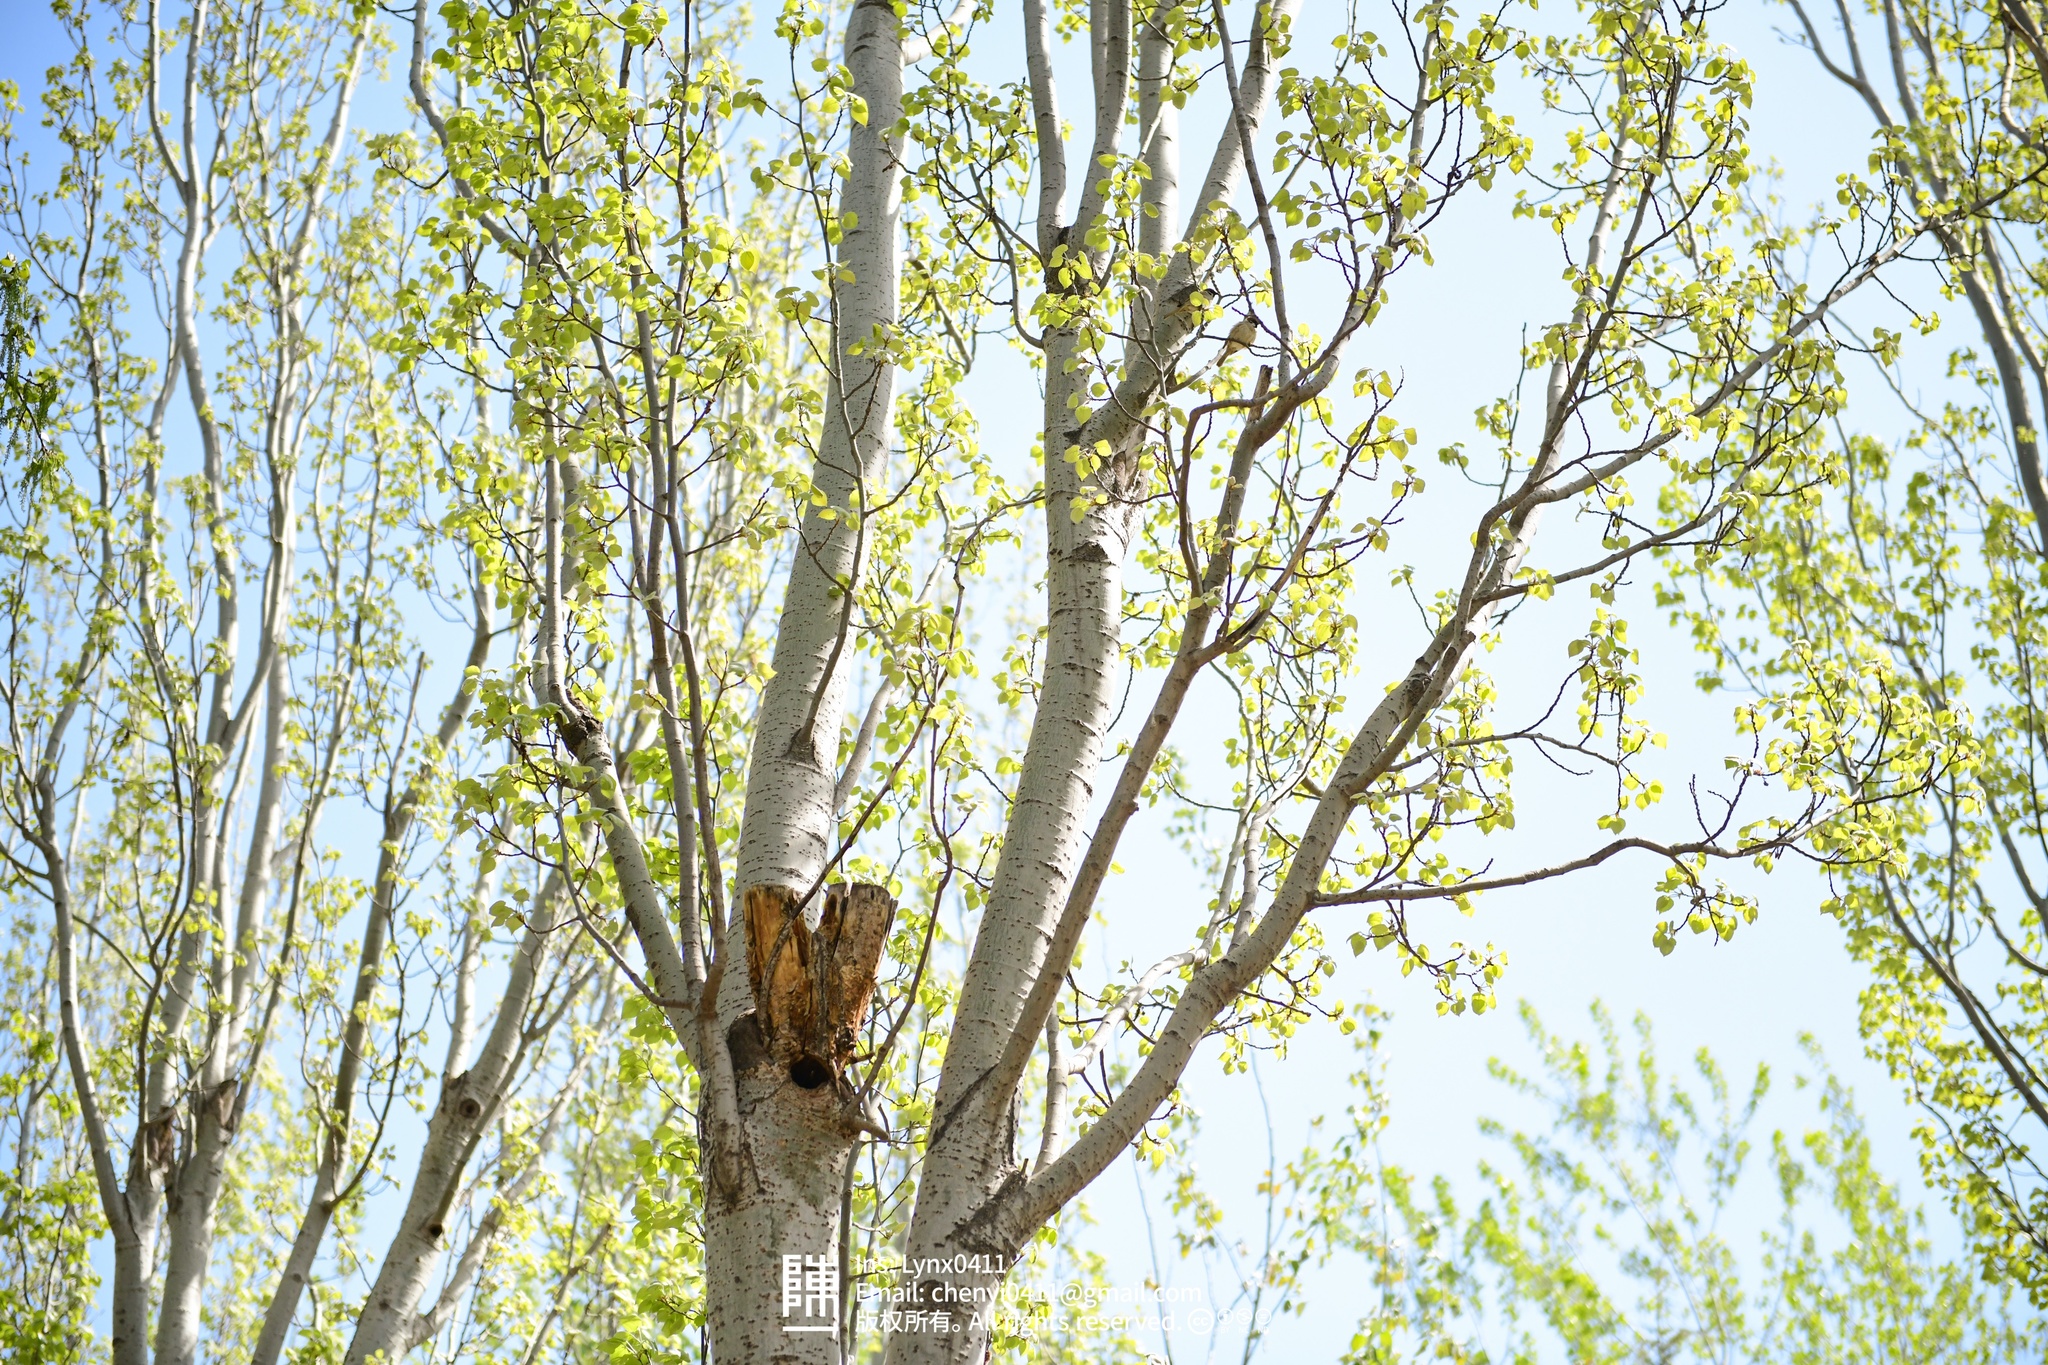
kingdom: Animalia
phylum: Chordata
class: Aves
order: Passeriformes
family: Passeridae
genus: Passer
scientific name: Passer montanus
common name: Eurasian tree sparrow
